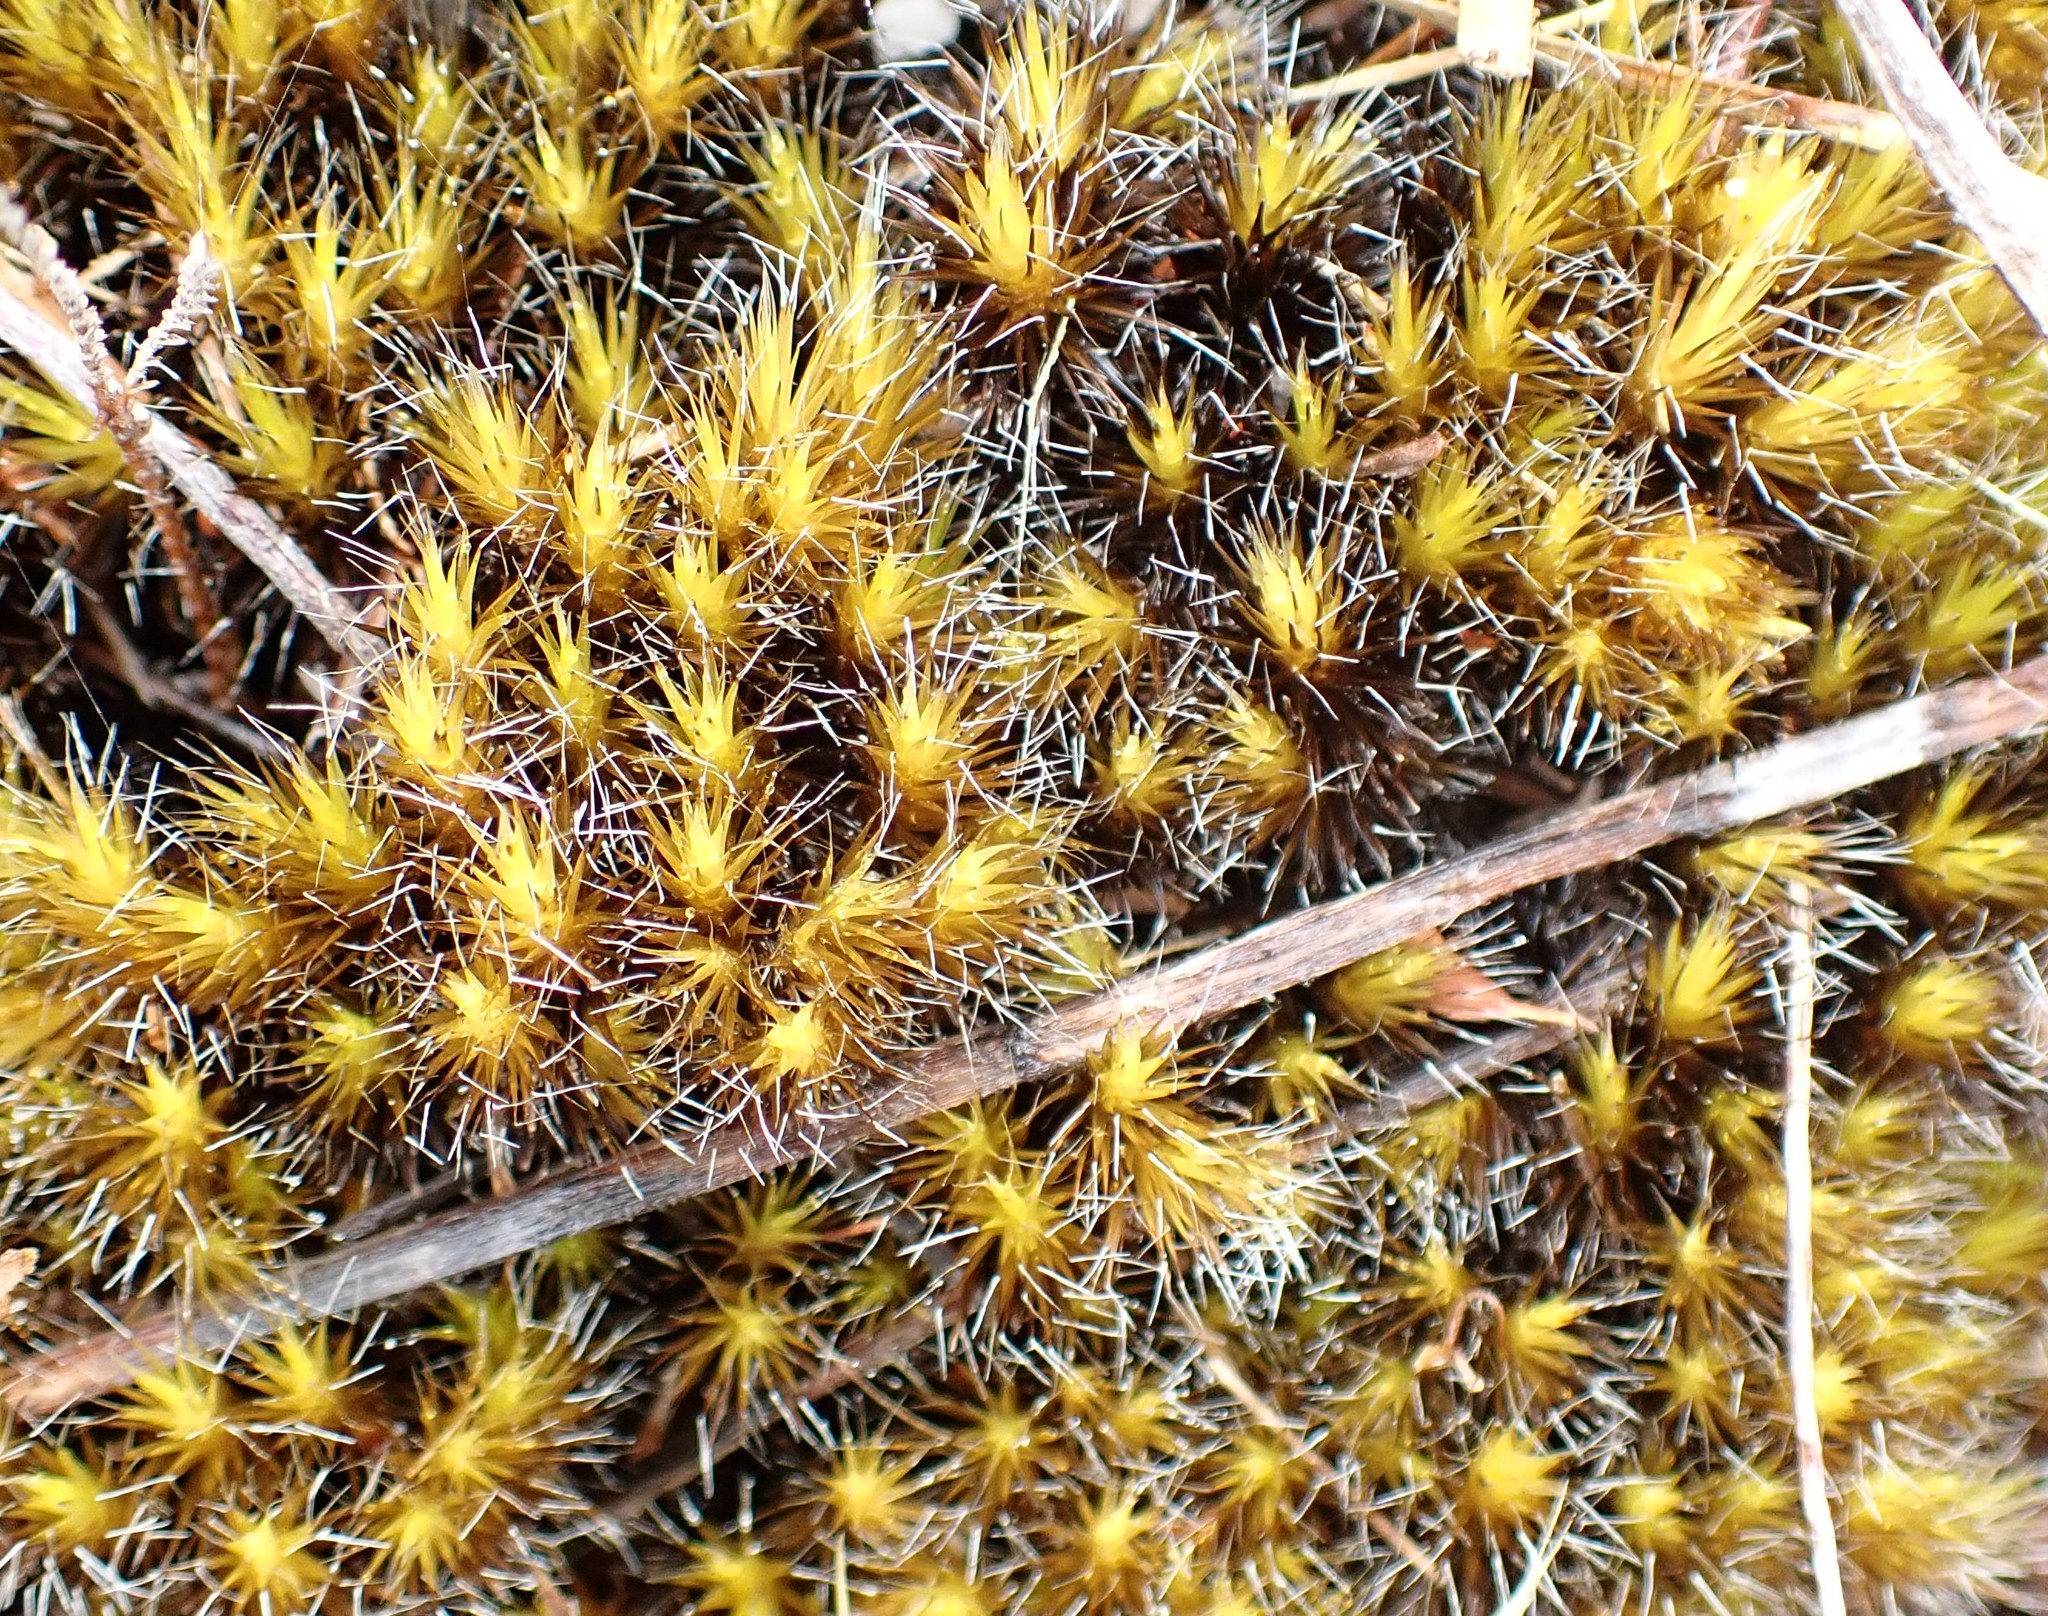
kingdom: Plantae
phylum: Bryophyta
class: Bryopsida
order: Dicranales
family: Leucobryaceae
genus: Campylopus
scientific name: Campylopus introflexus
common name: Heath star moss
